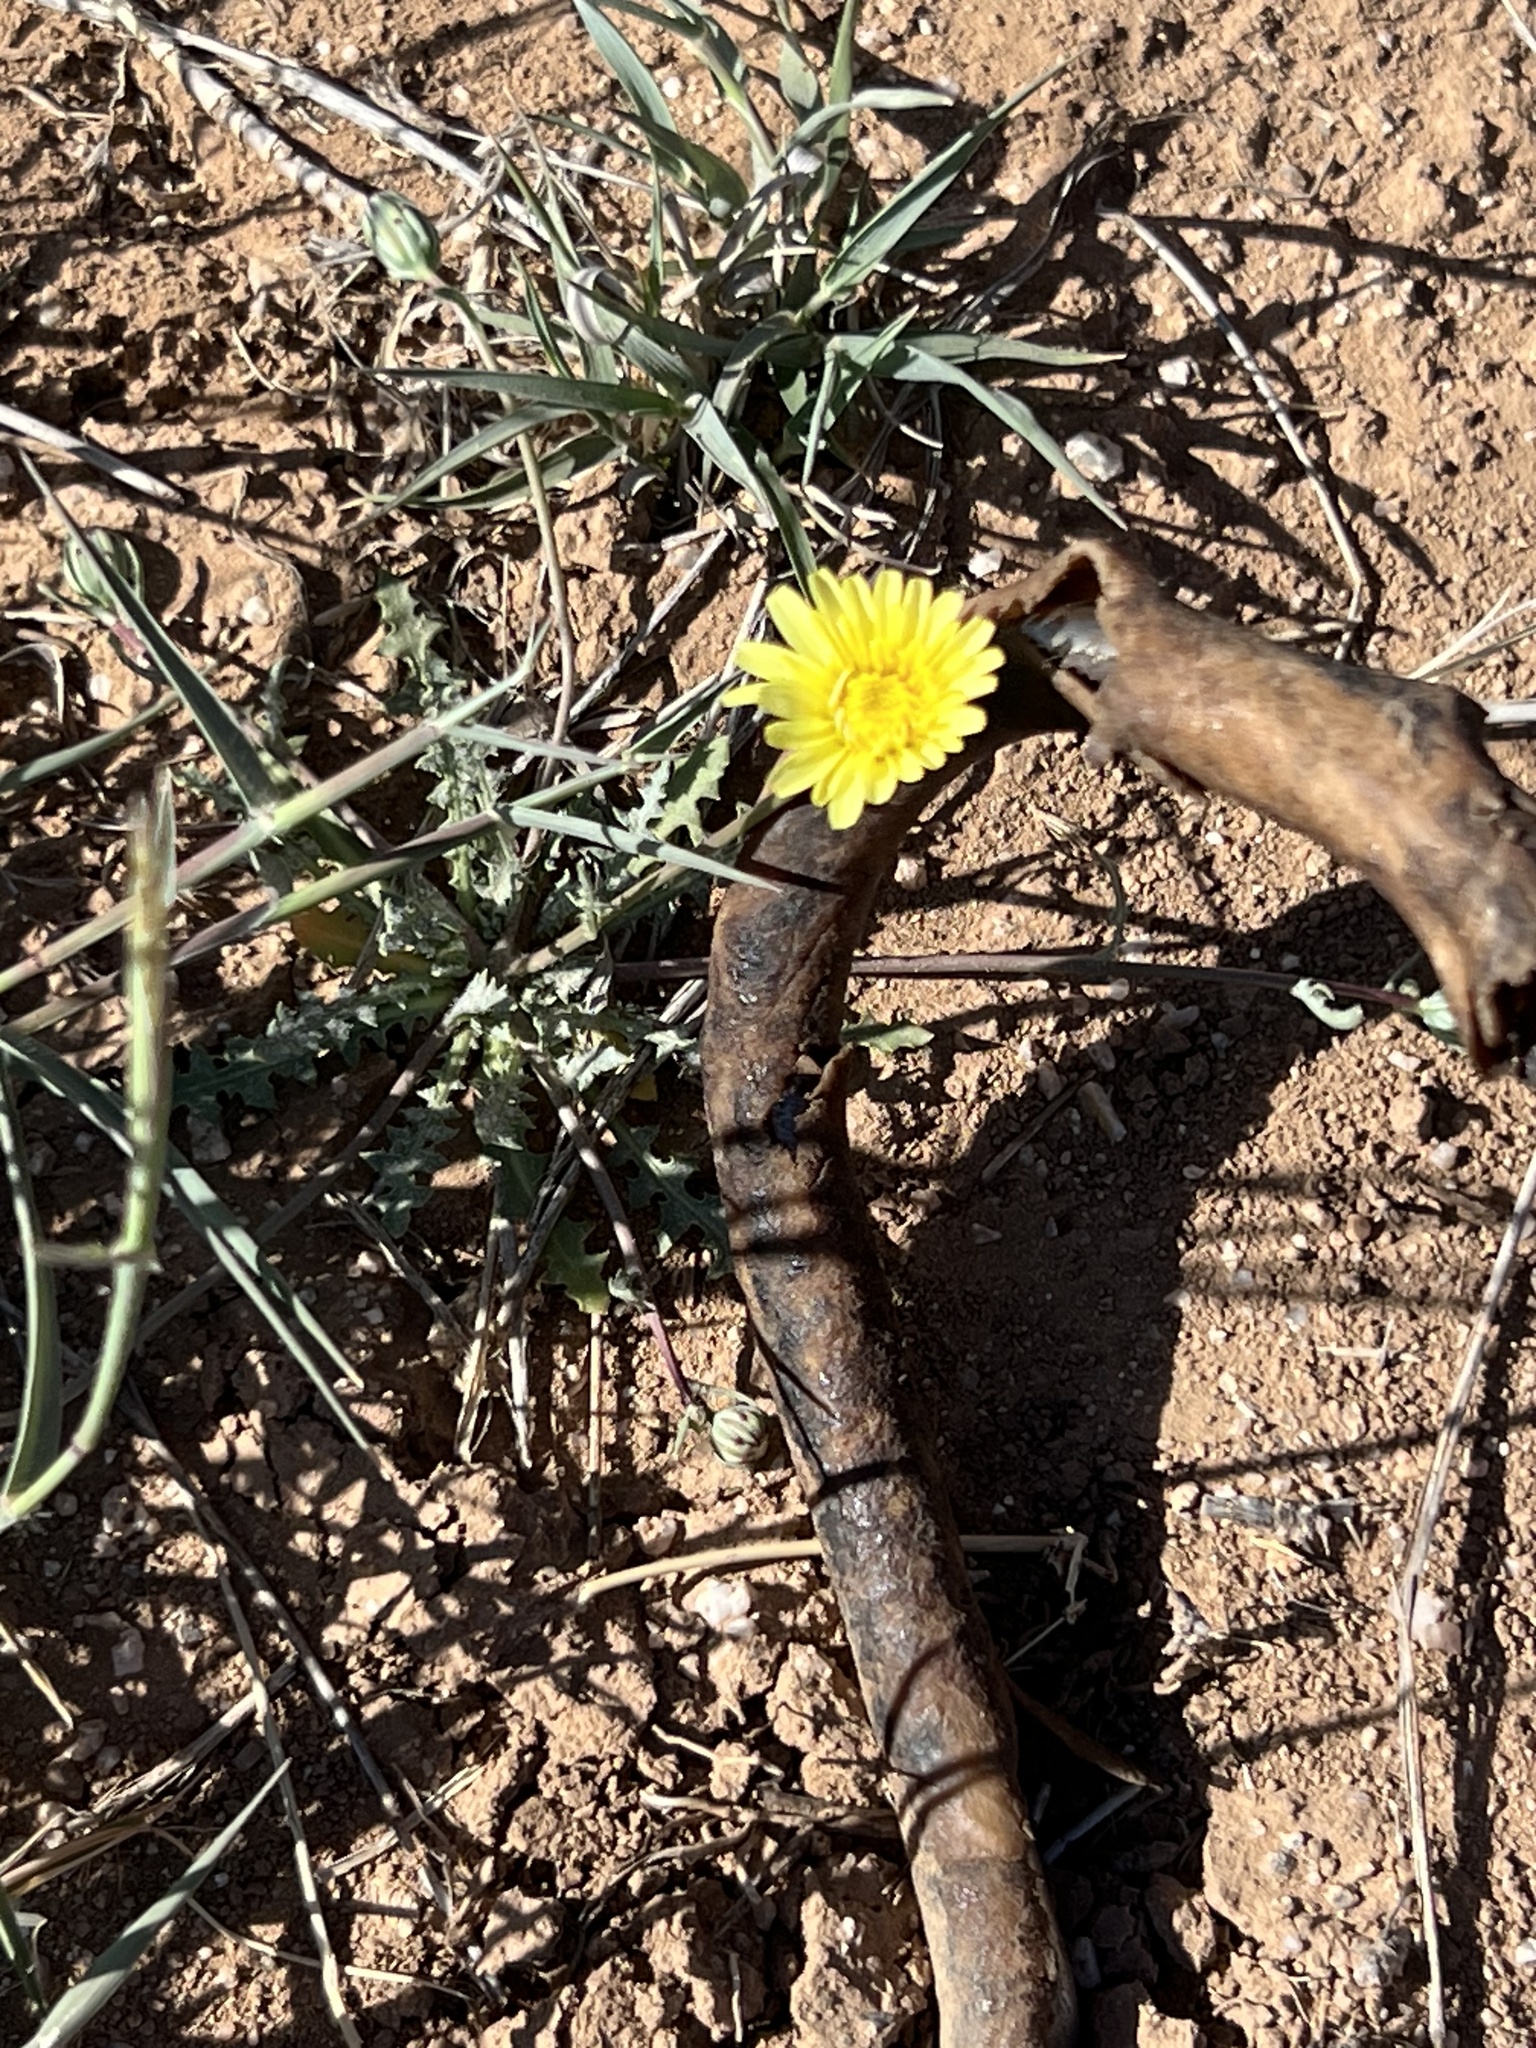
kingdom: Plantae
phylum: Tracheophyta
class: Magnoliopsida
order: Asterales
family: Asteraceae
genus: Malacothrix
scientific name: Malacothrix fendleri
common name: Fendler's desert-dandelion
